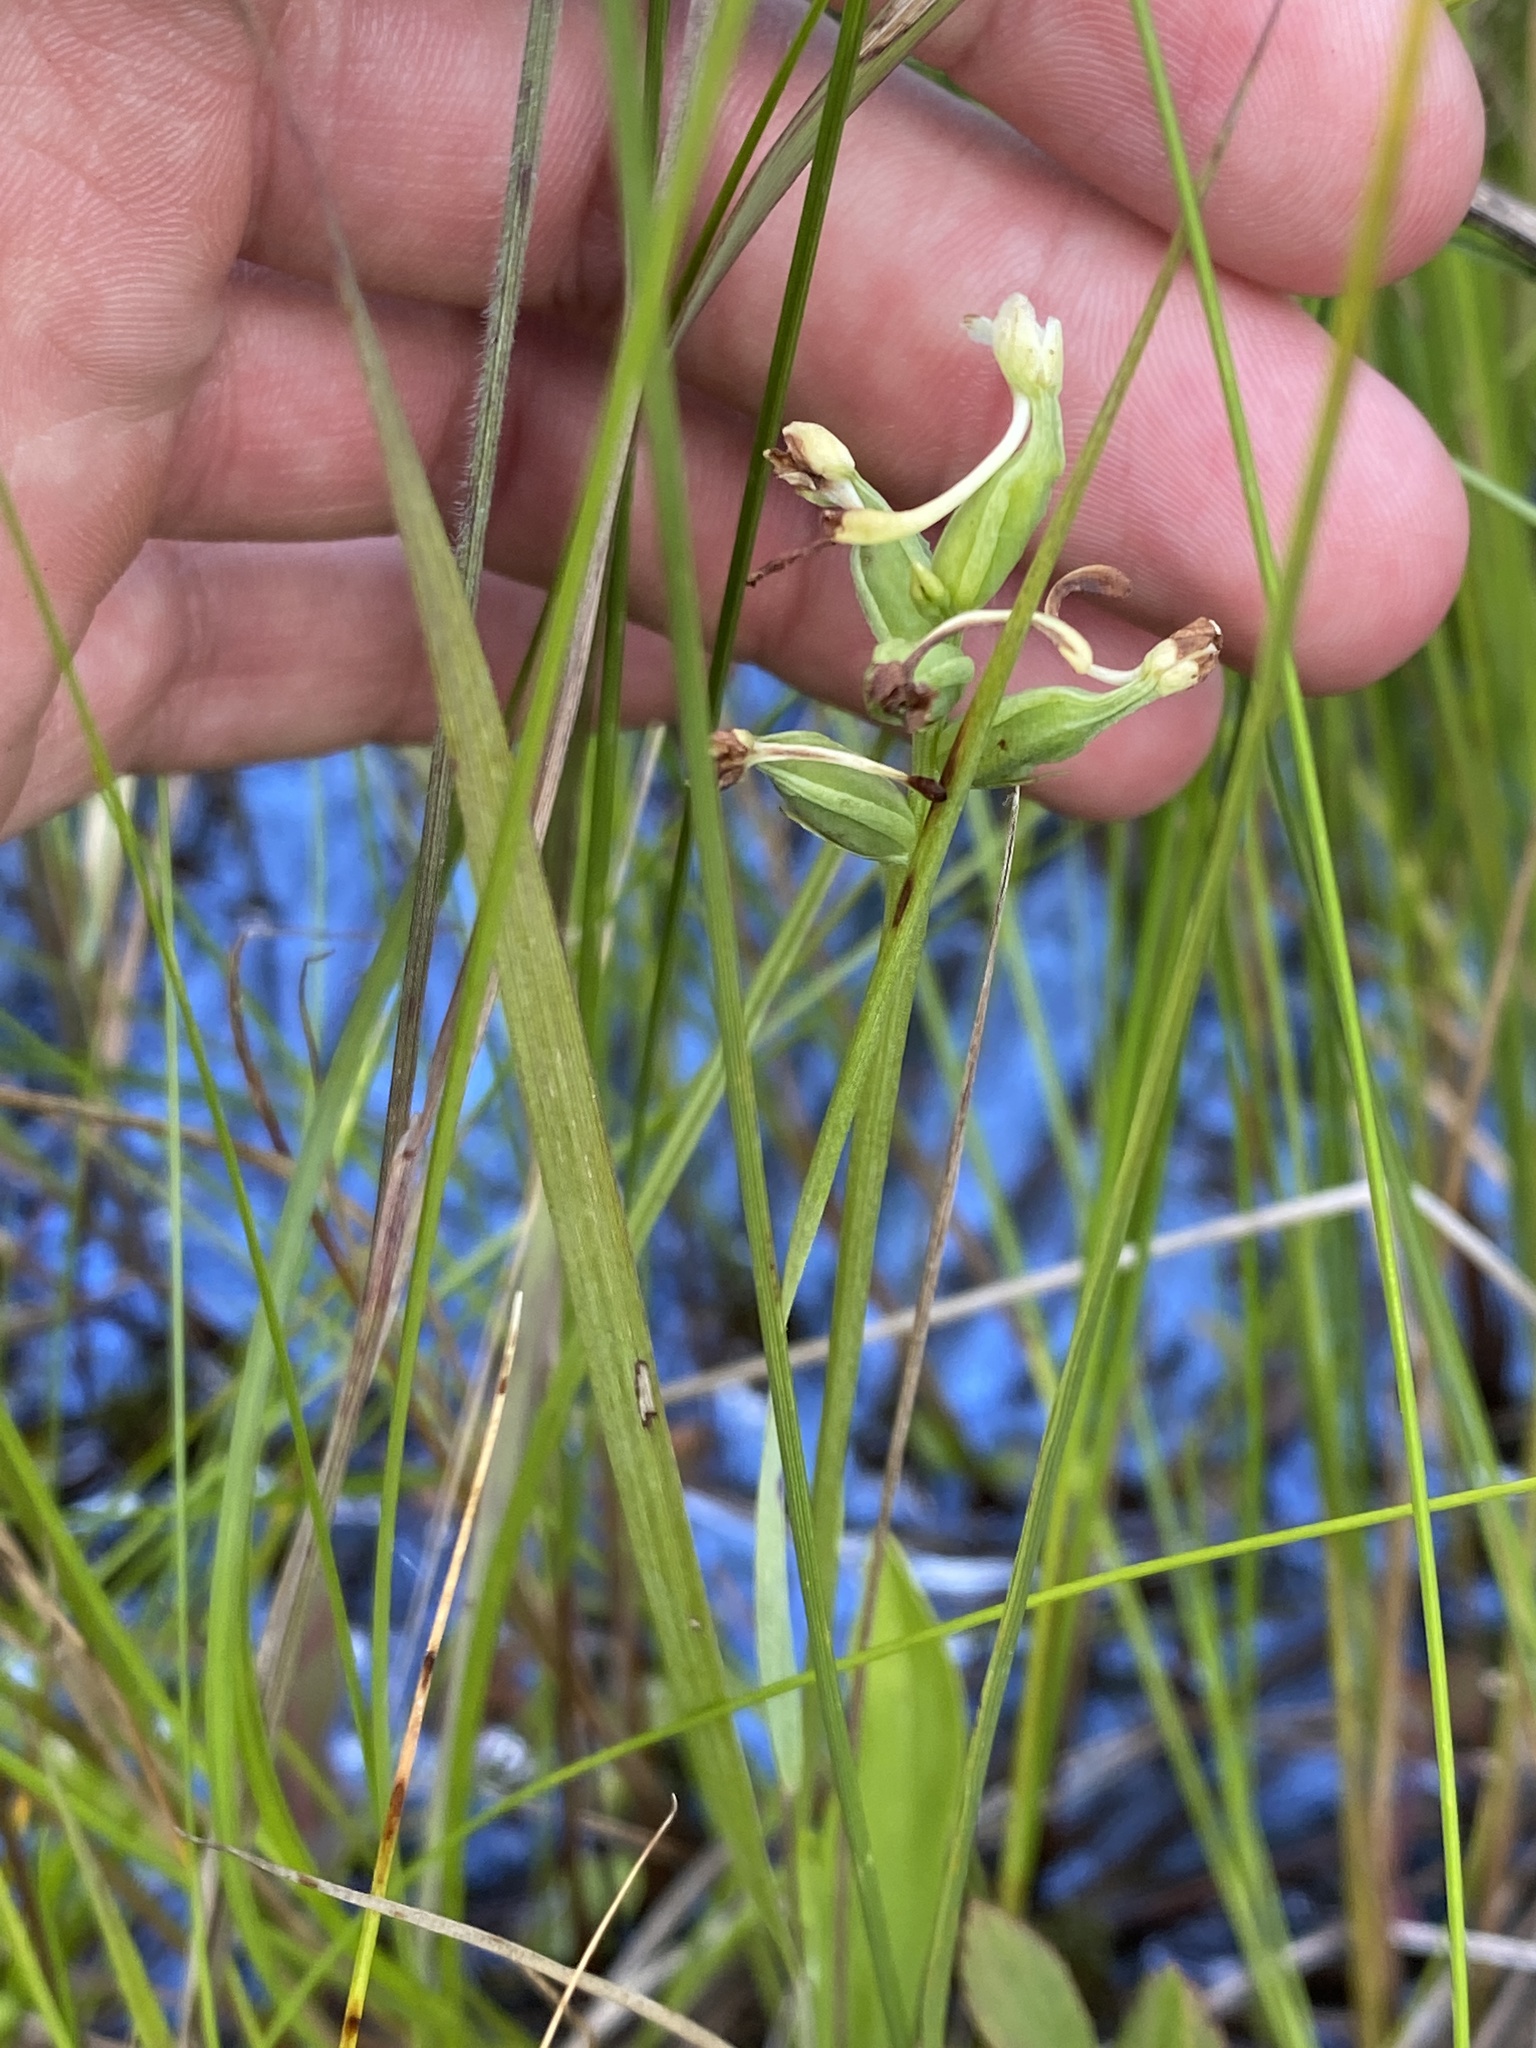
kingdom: Plantae
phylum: Tracheophyta
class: Liliopsida
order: Asparagales
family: Orchidaceae
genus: Platanthera
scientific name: Platanthera clavellata
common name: Club-spur orchid
